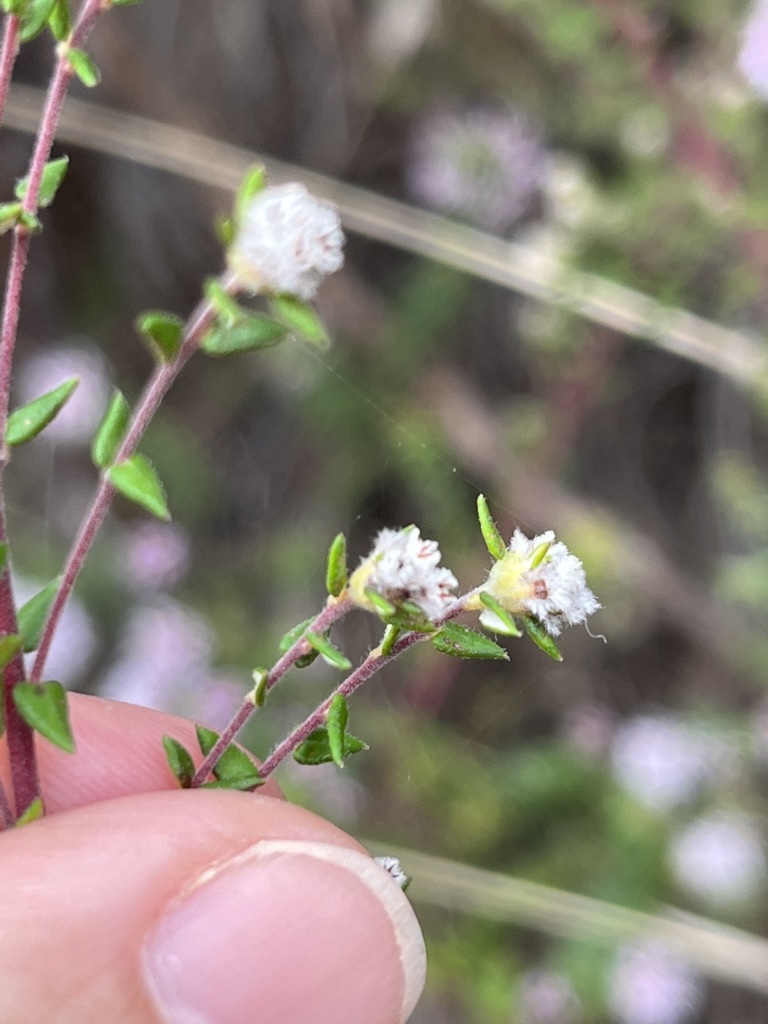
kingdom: Plantae
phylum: Tracheophyta
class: Magnoliopsida
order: Rosales
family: Rhamnaceae
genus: Phylica
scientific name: Phylica diffusa
